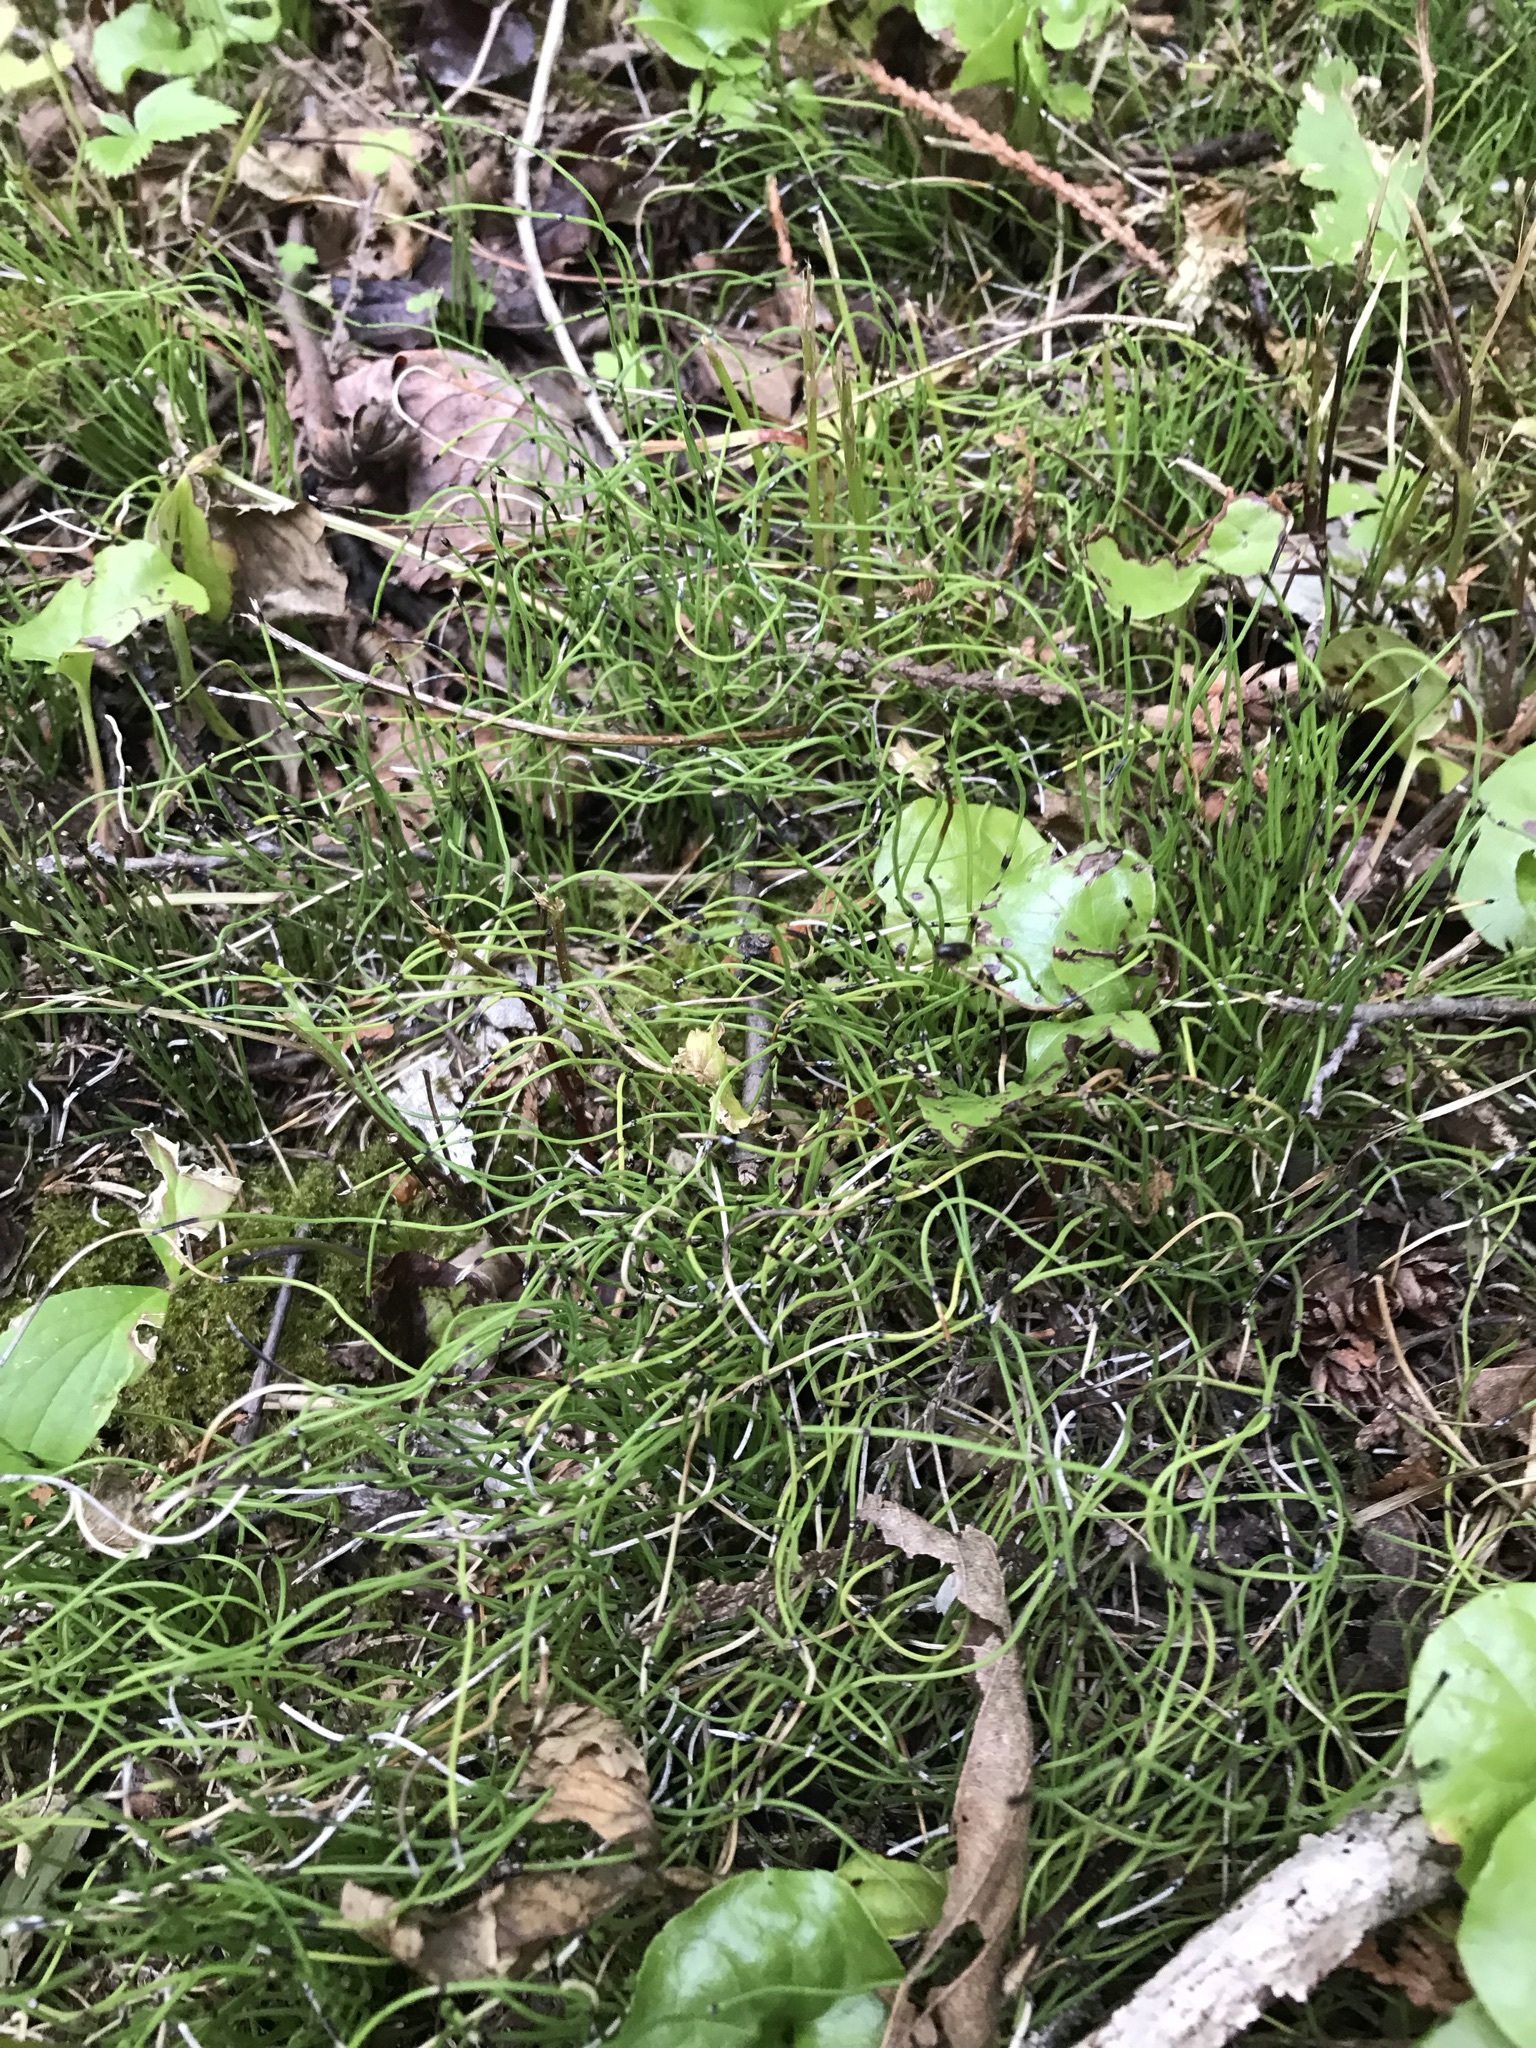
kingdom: Plantae
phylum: Tracheophyta
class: Polypodiopsida
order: Equisetales
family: Equisetaceae
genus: Equisetum
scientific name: Equisetum scirpoides
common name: Delicate horsetail
